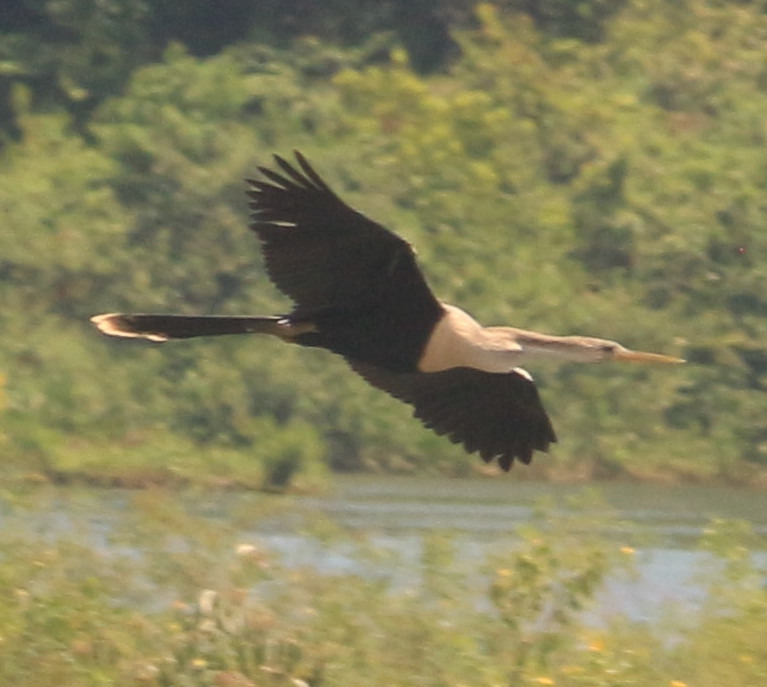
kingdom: Animalia
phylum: Chordata
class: Aves
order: Suliformes
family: Anhingidae
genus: Anhinga
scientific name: Anhinga anhinga
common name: Anhinga
